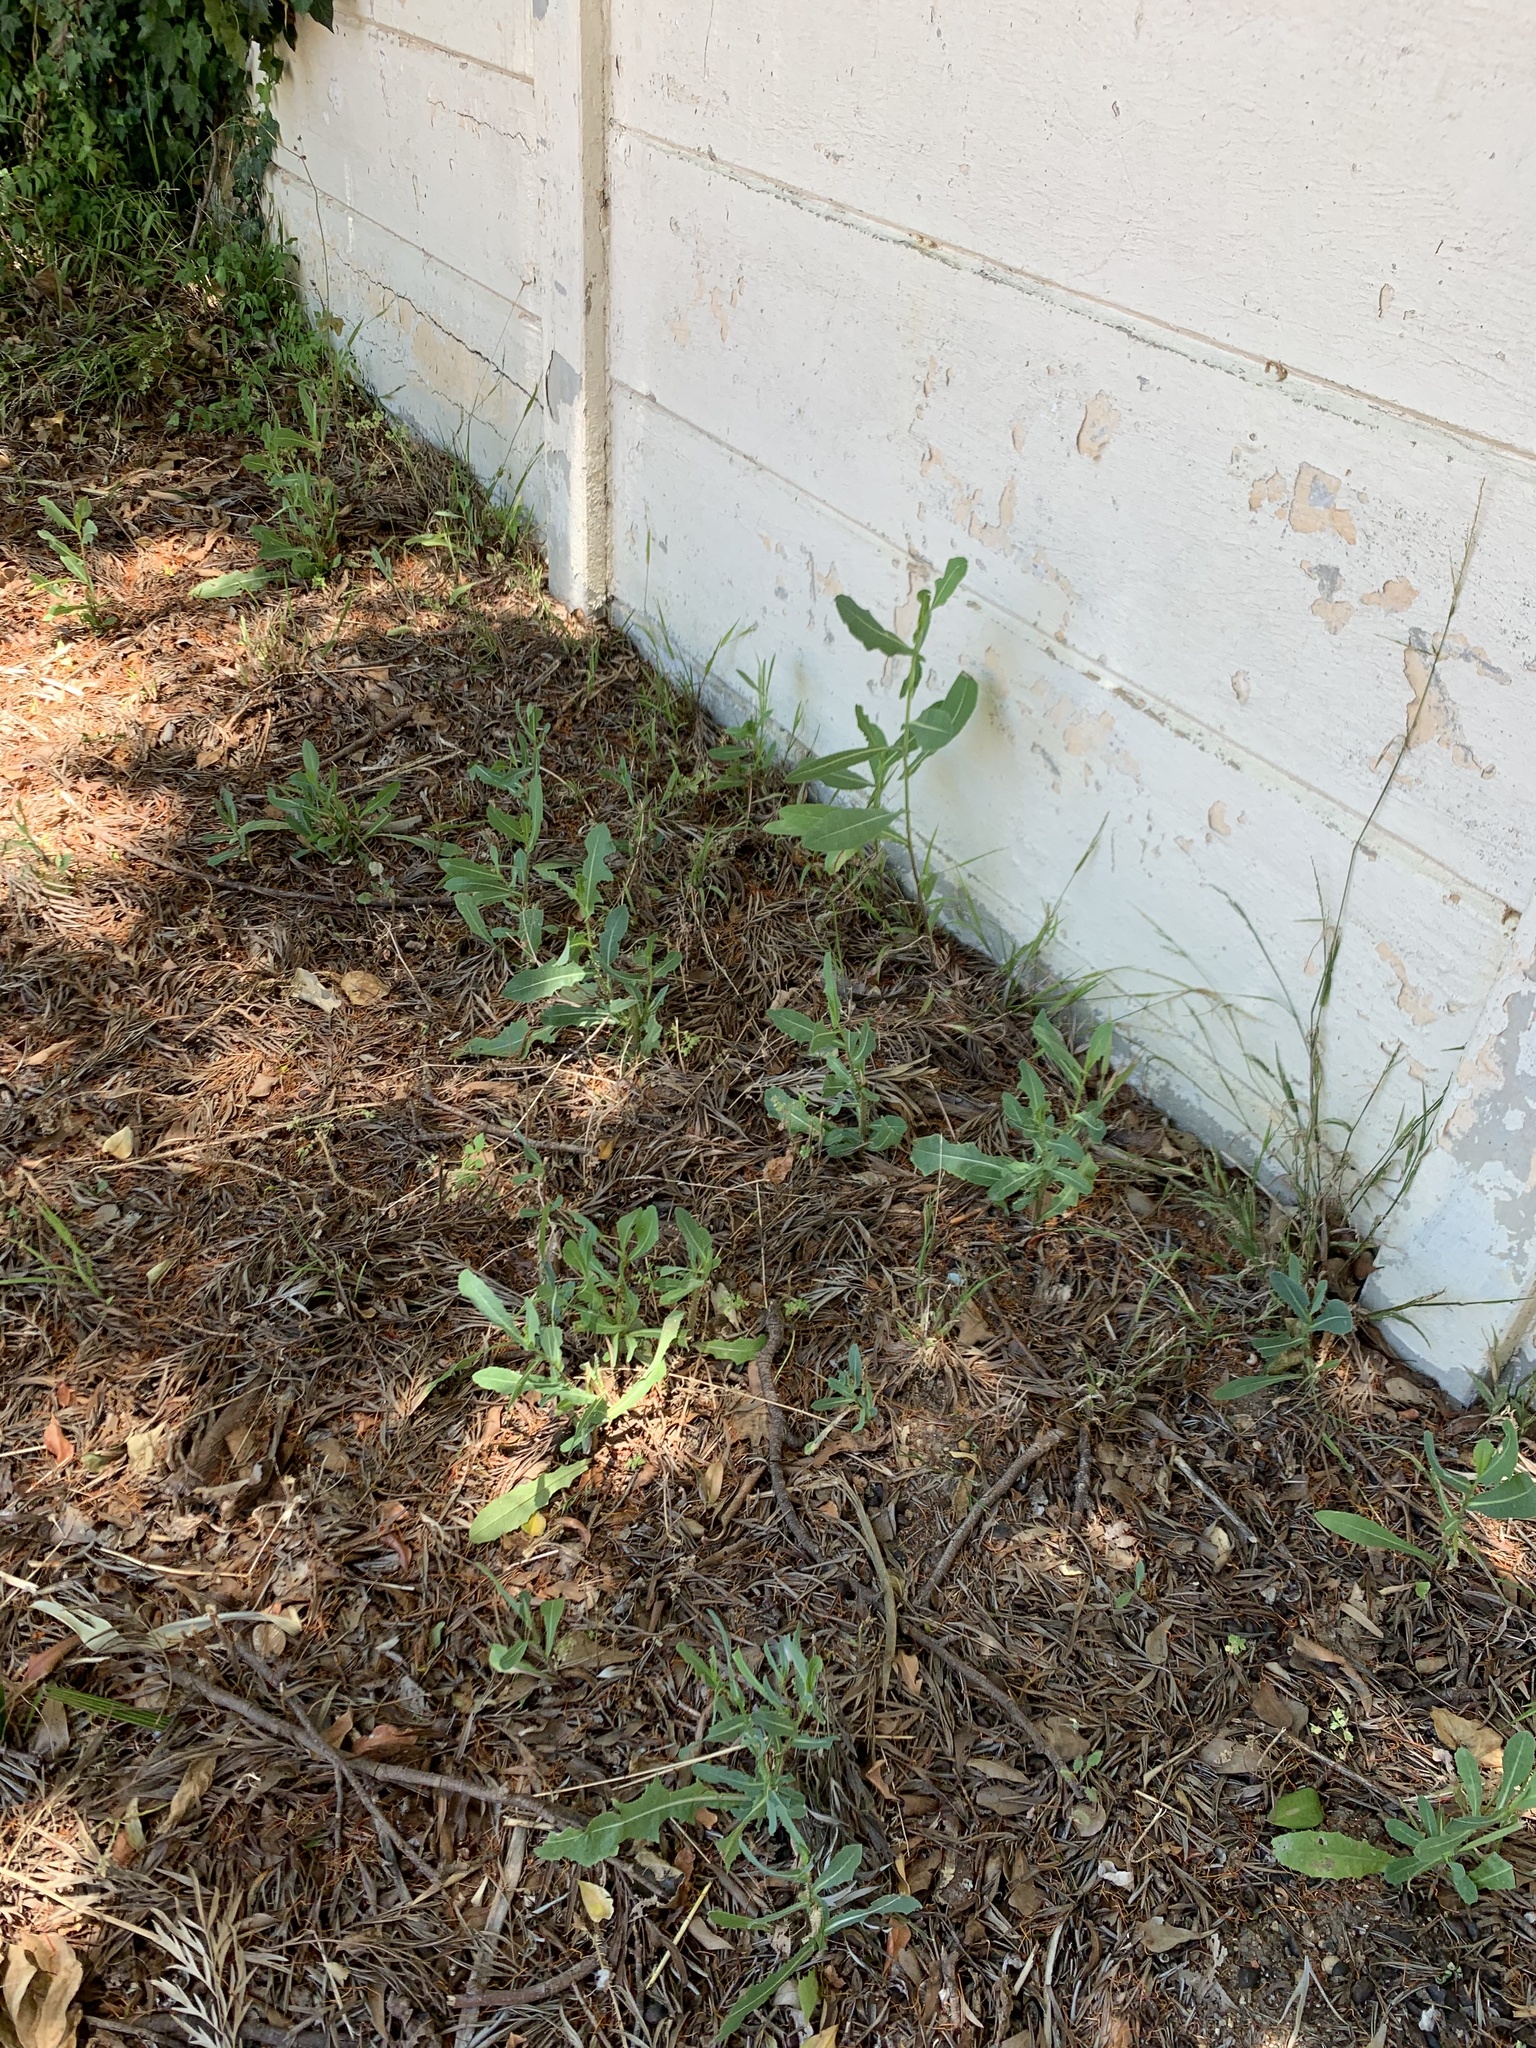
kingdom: Plantae
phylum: Tracheophyta
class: Magnoliopsida
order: Asterales
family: Asteraceae
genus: Lactuca
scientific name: Lactuca serriola
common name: Prickly lettuce
